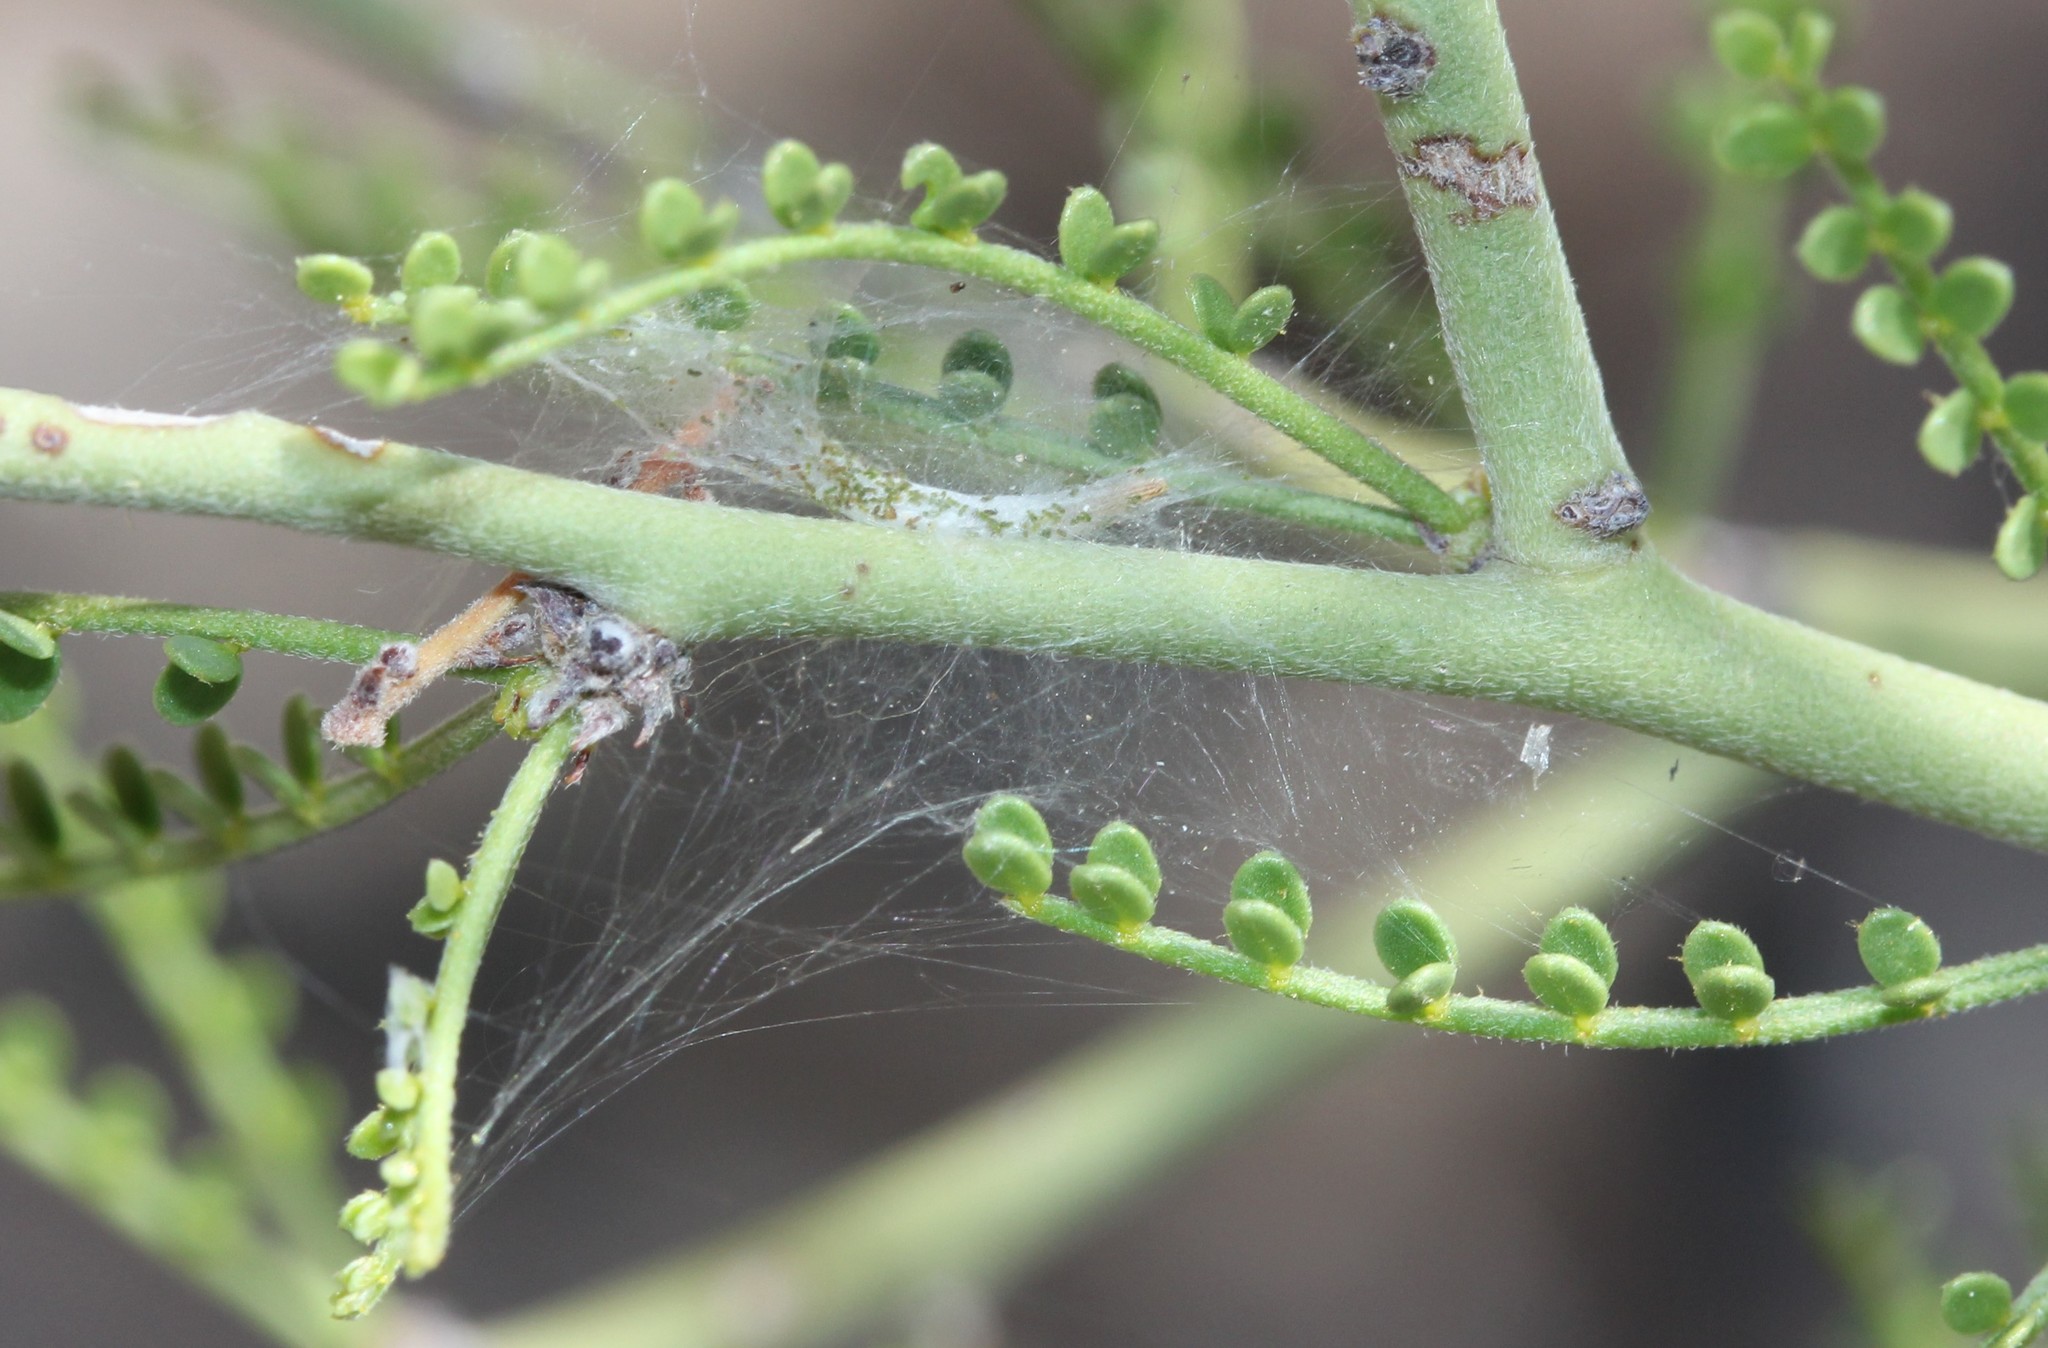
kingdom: Animalia
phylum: Arthropoda
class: Insecta
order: Lepidoptera
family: Gelechiidae
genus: Faculta
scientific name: Faculta inaequalis
